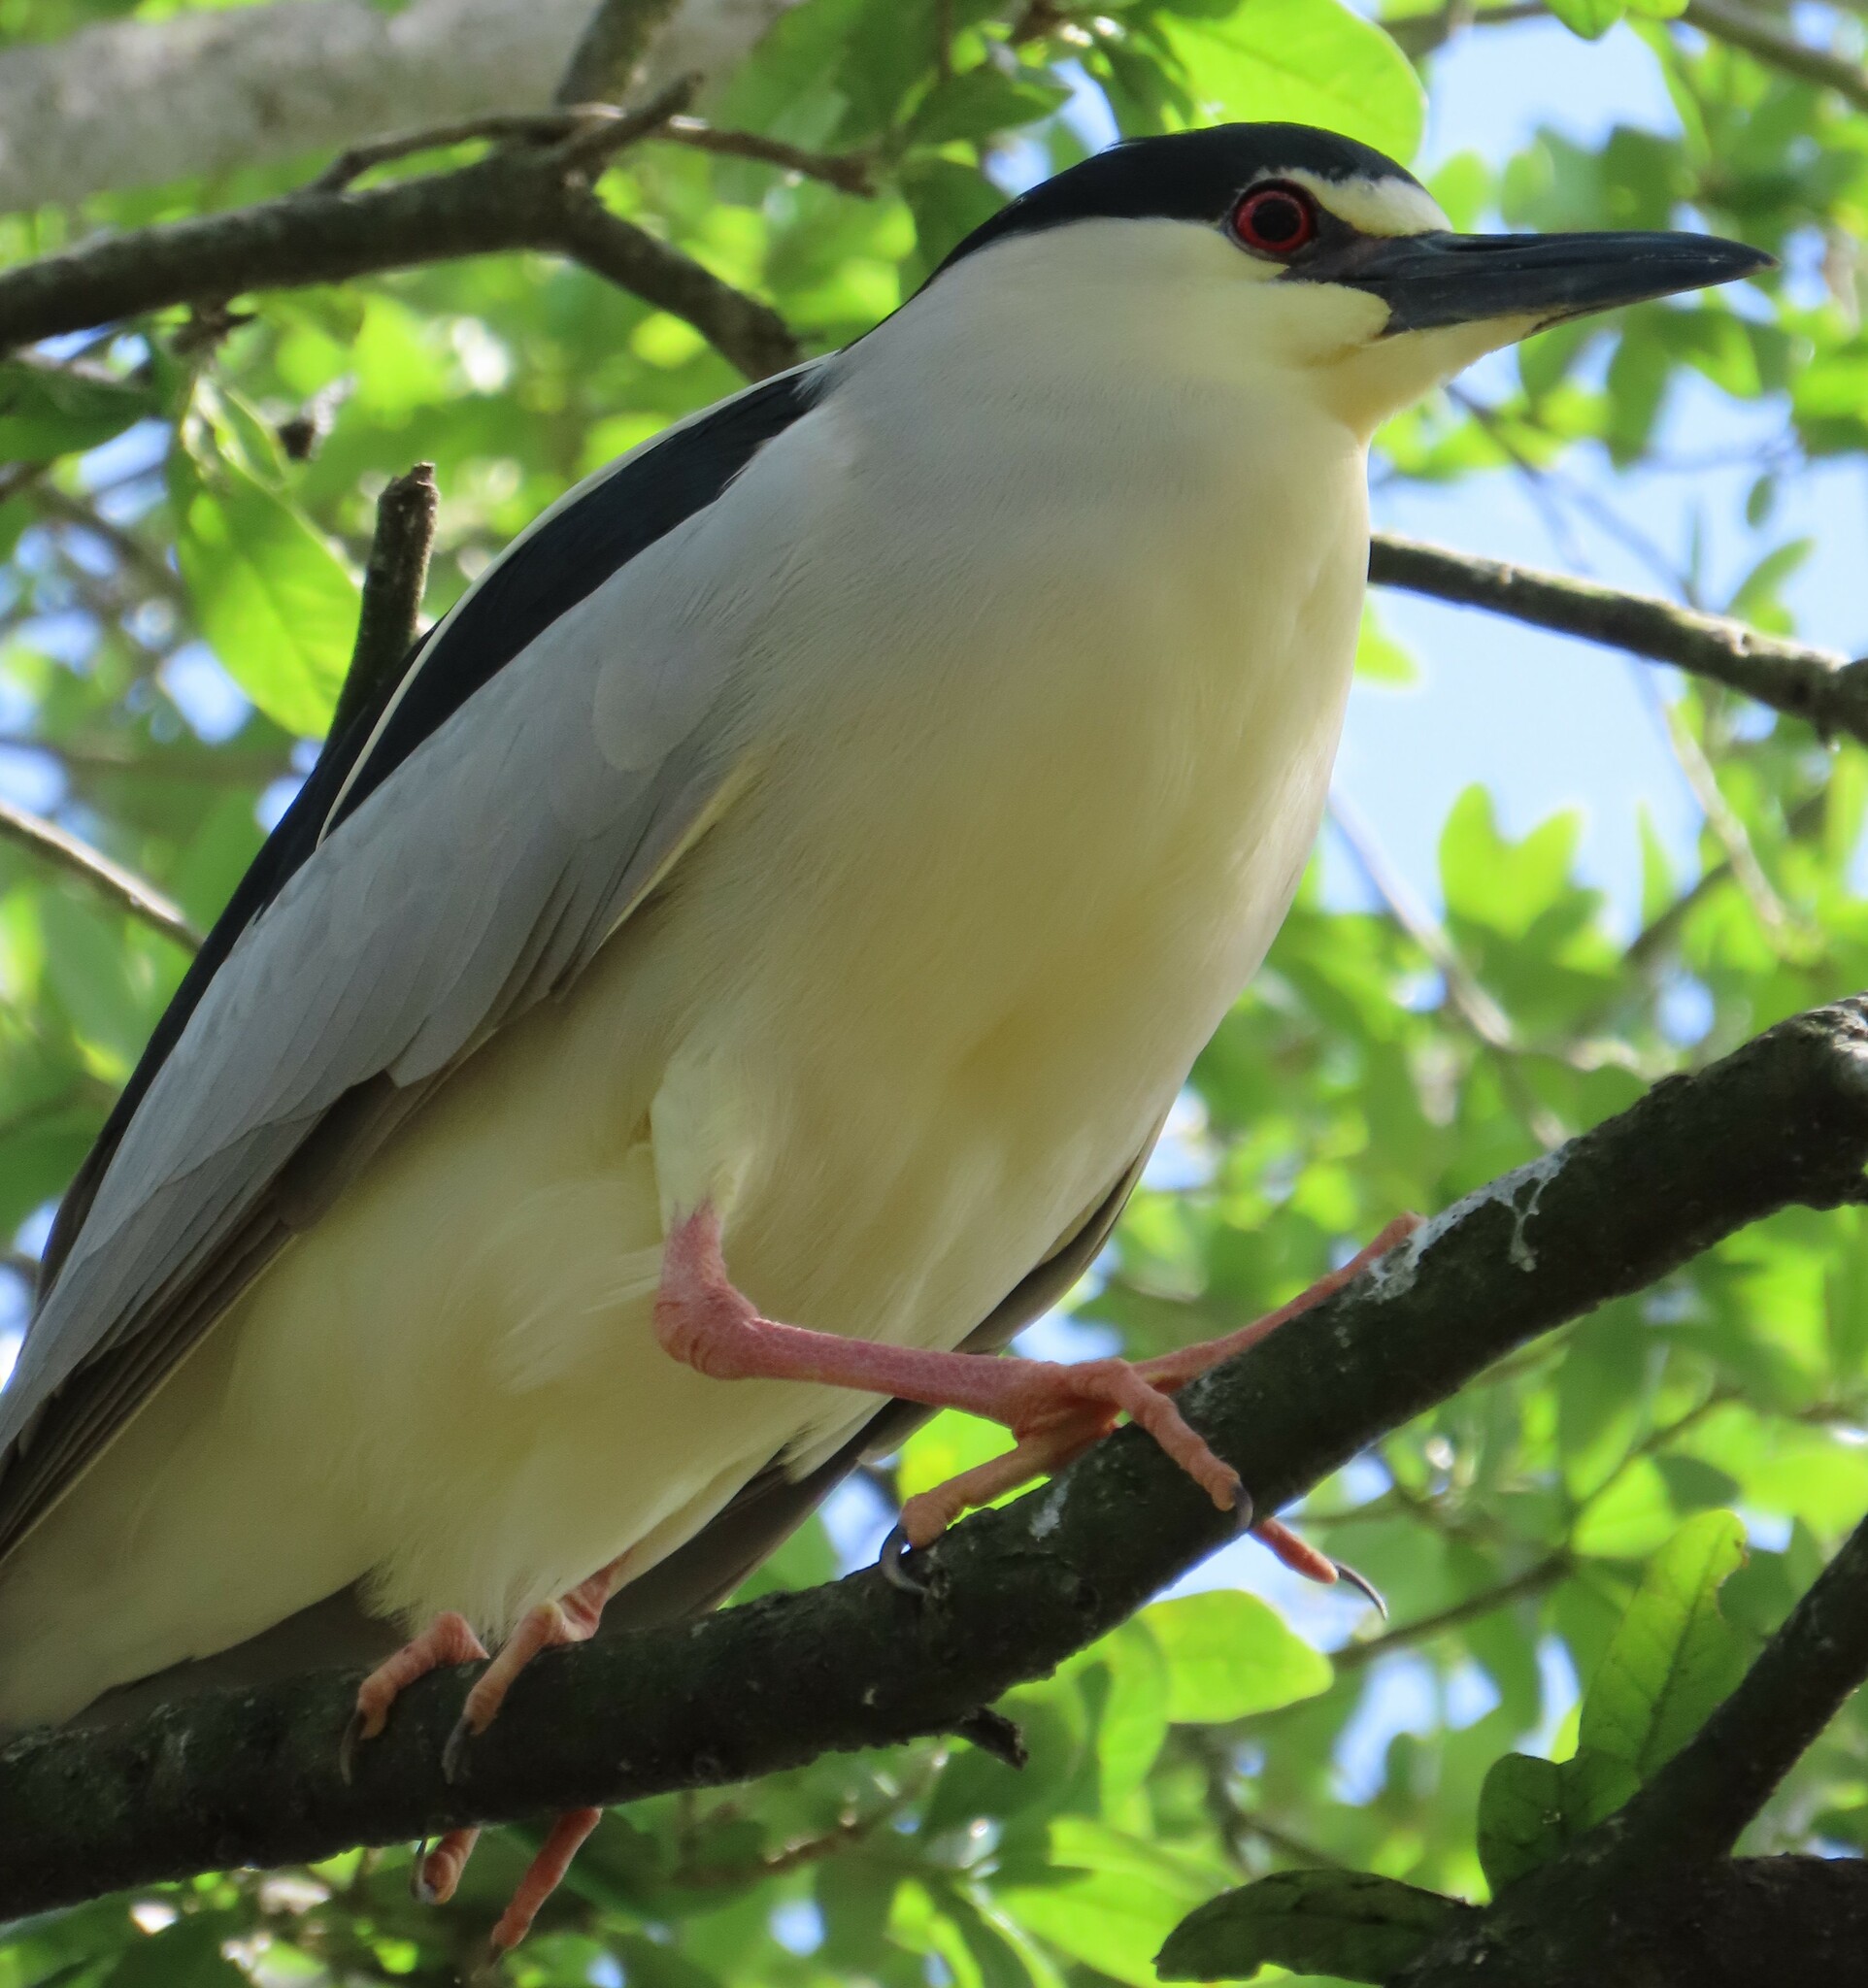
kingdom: Animalia
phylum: Chordata
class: Aves
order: Pelecaniformes
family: Ardeidae
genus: Nycticorax
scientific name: Nycticorax nycticorax
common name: Black-crowned night heron
